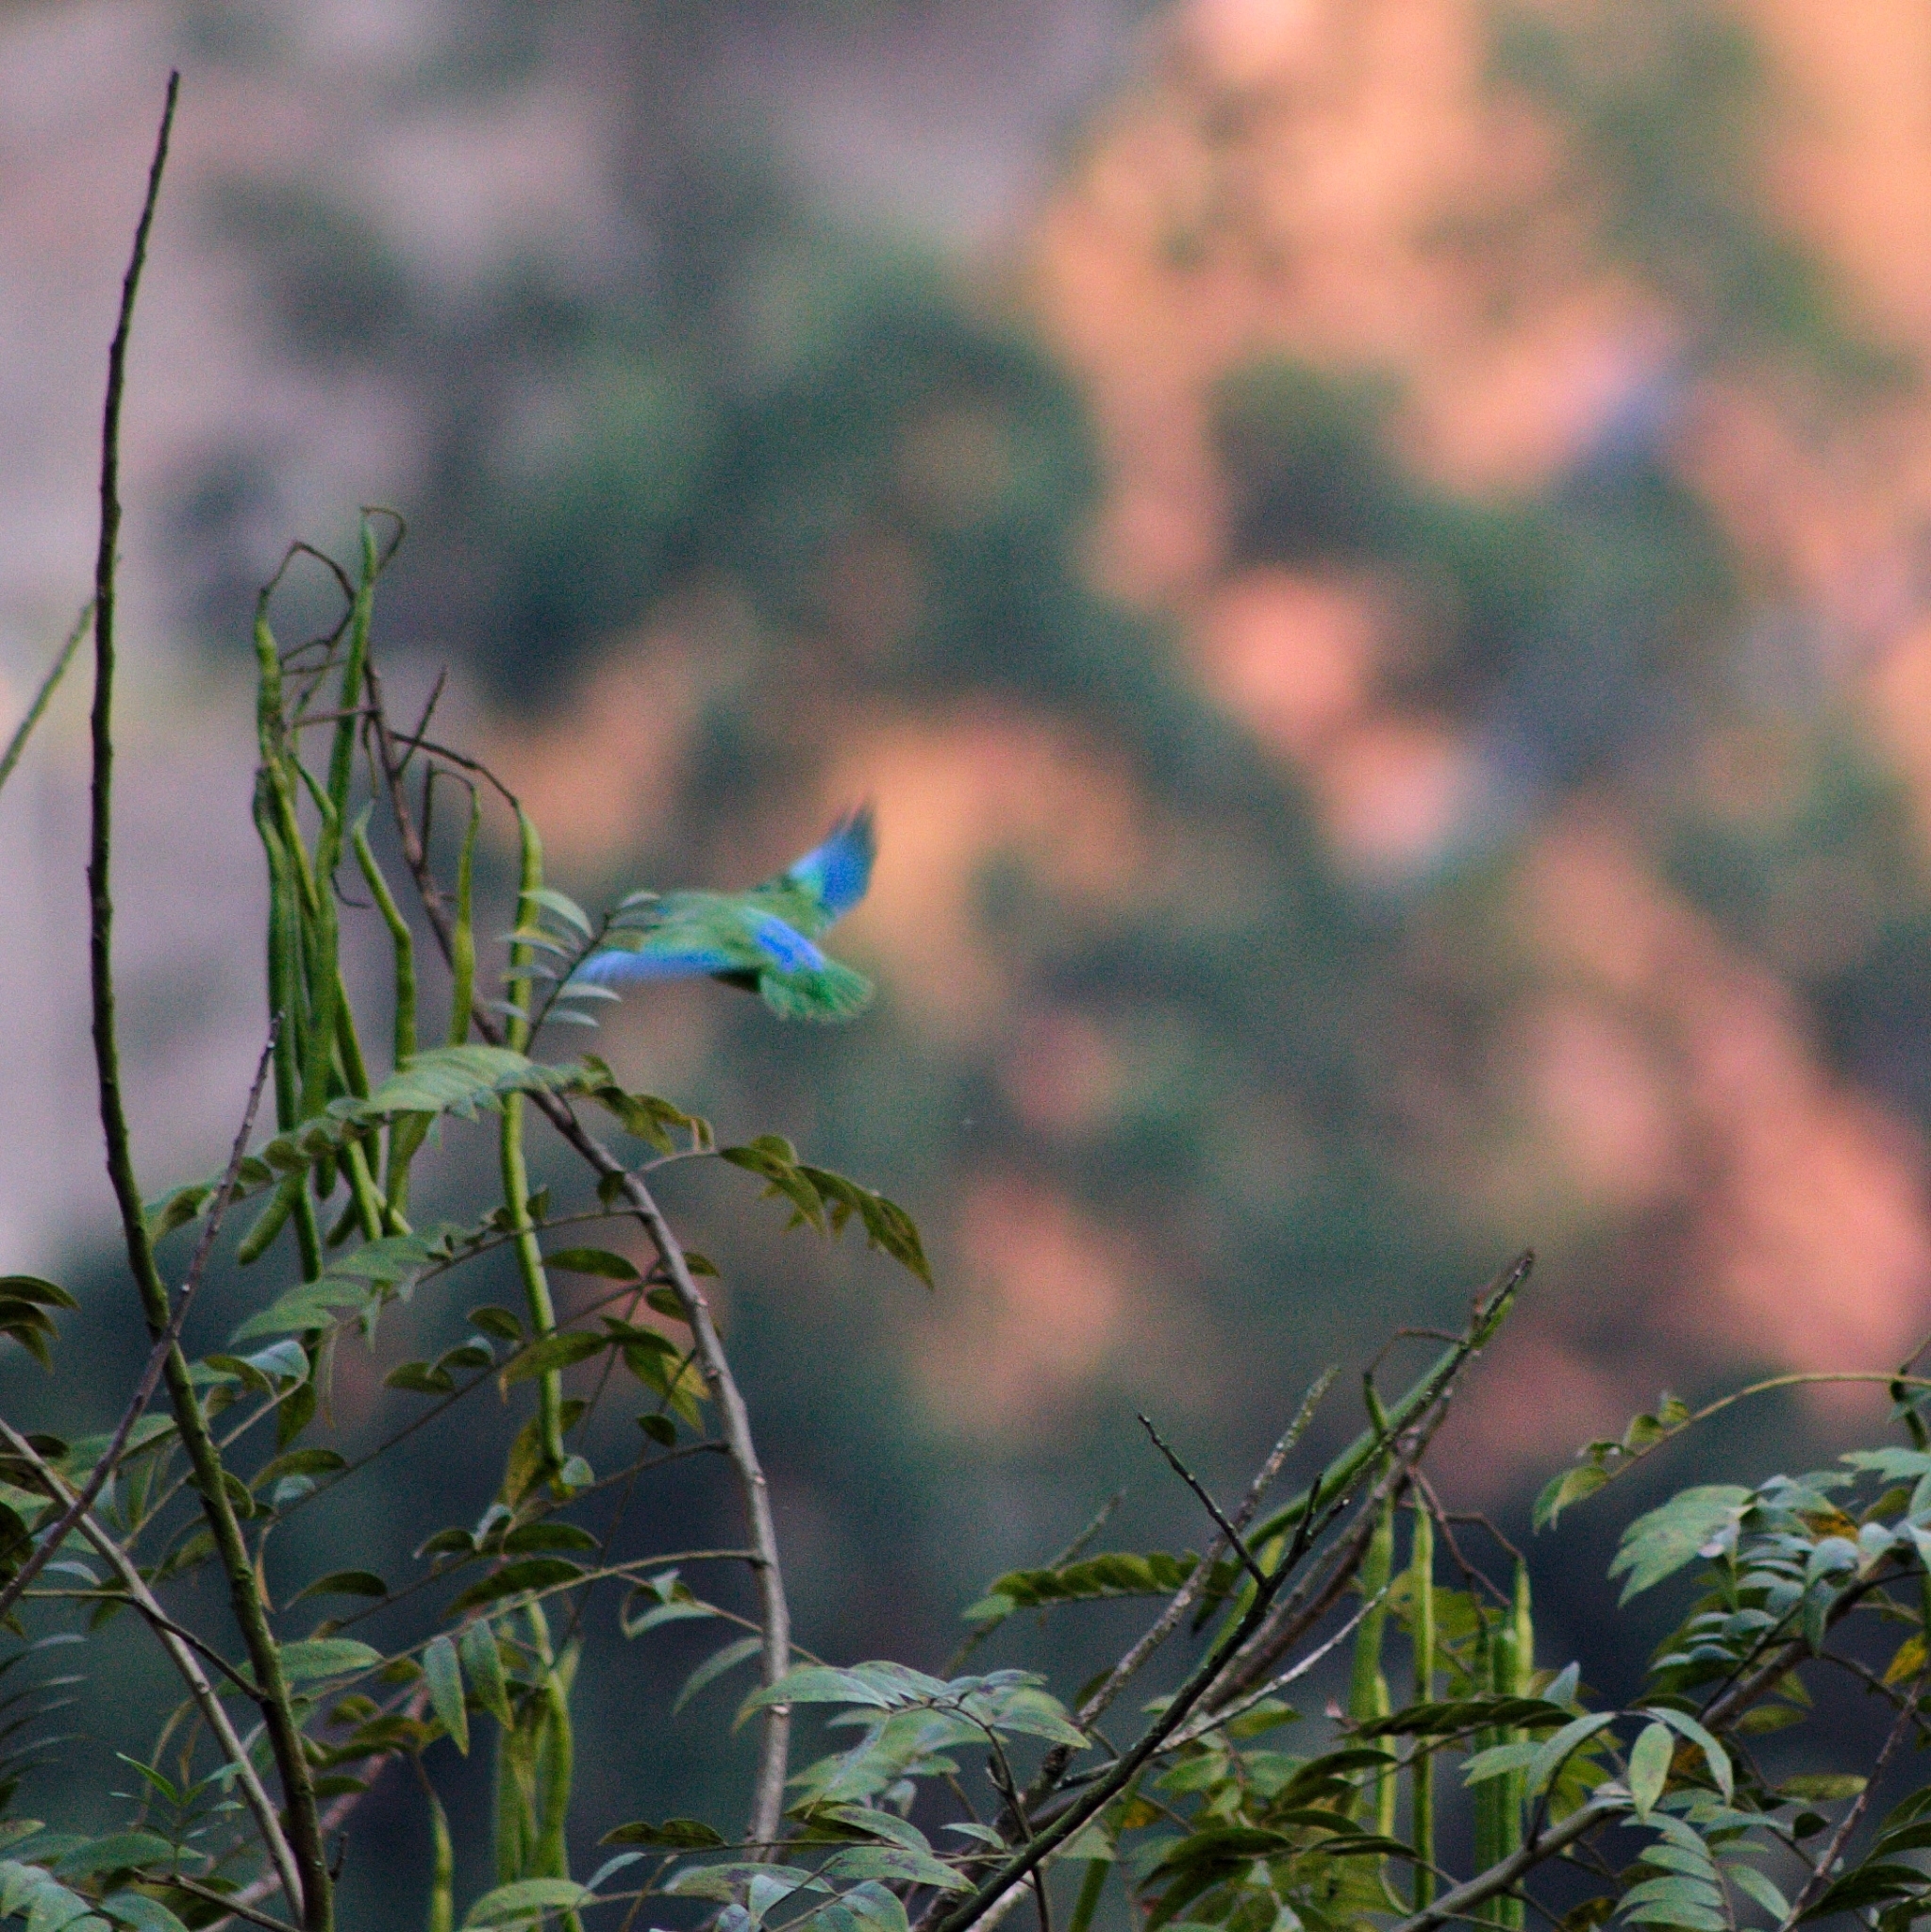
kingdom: Animalia
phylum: Chordata
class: Aves
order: Psittaciformes
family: Psittacidae
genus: Forpus
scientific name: Forpus conspicillatus
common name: Spectacled parrotlet
